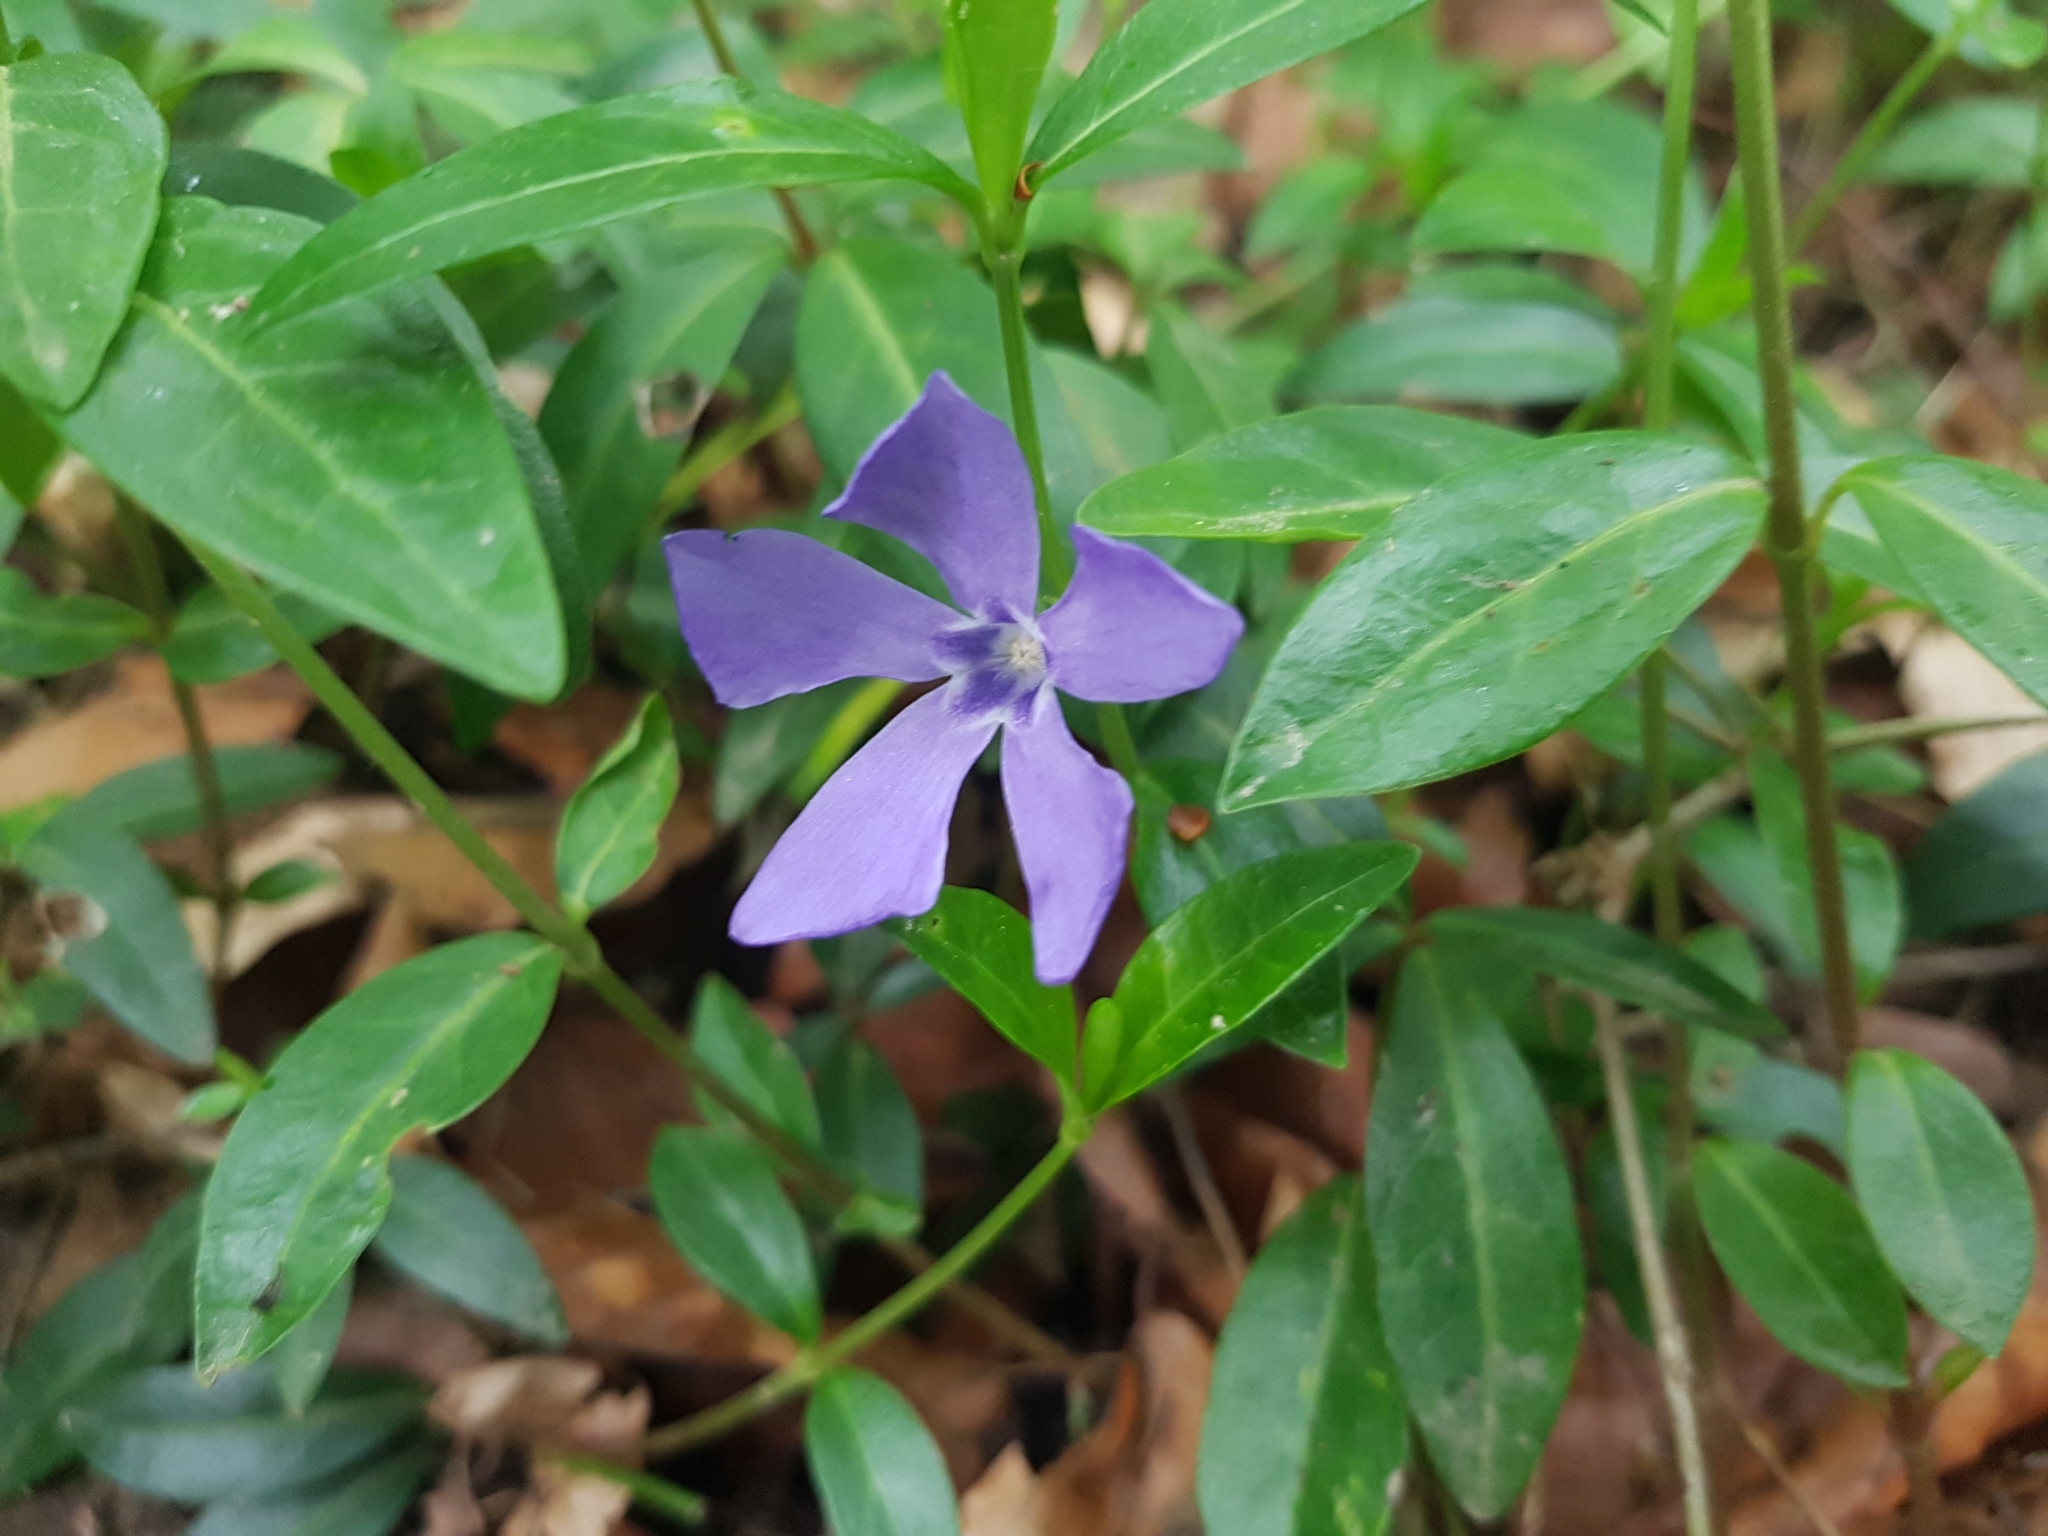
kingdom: Plantae
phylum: Tracheophyta
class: Magnoliopsida
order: Gentianales
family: Apocynaceae
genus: Vinca
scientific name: Vinca minor
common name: Lesser periwinkle
